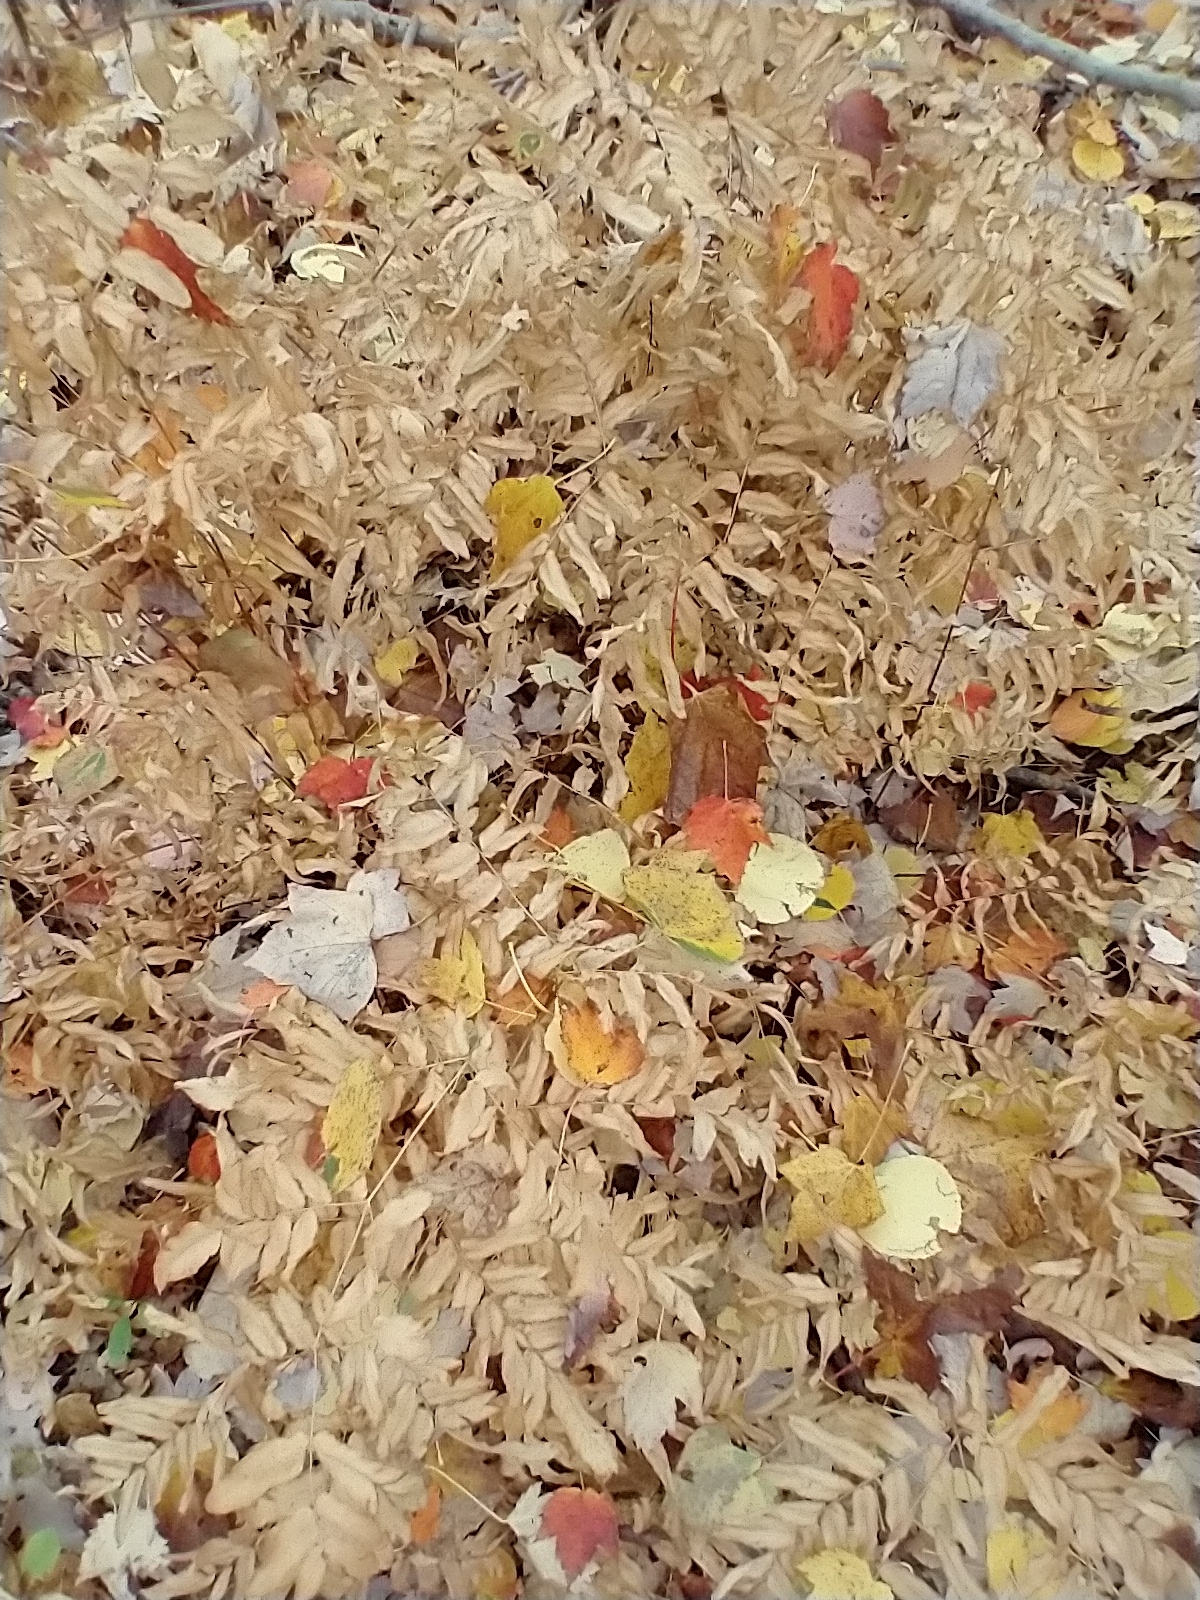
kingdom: Plantae
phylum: Tracheophyta
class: Polypodiopsida
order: Osmundales
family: Osmundaceae
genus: Osmunda
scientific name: Osmunda spectabilis
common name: American royal fern
